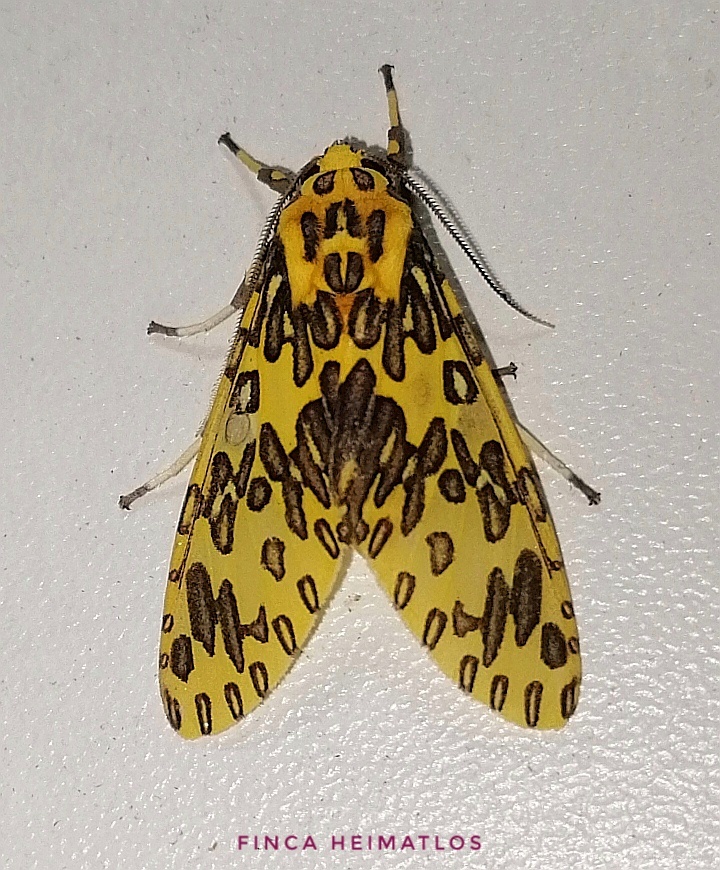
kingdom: Animalia
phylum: Arthropoda
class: Insecta
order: Lepidoptera
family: Erebidae
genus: Amaxia
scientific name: Amaxia pandama
